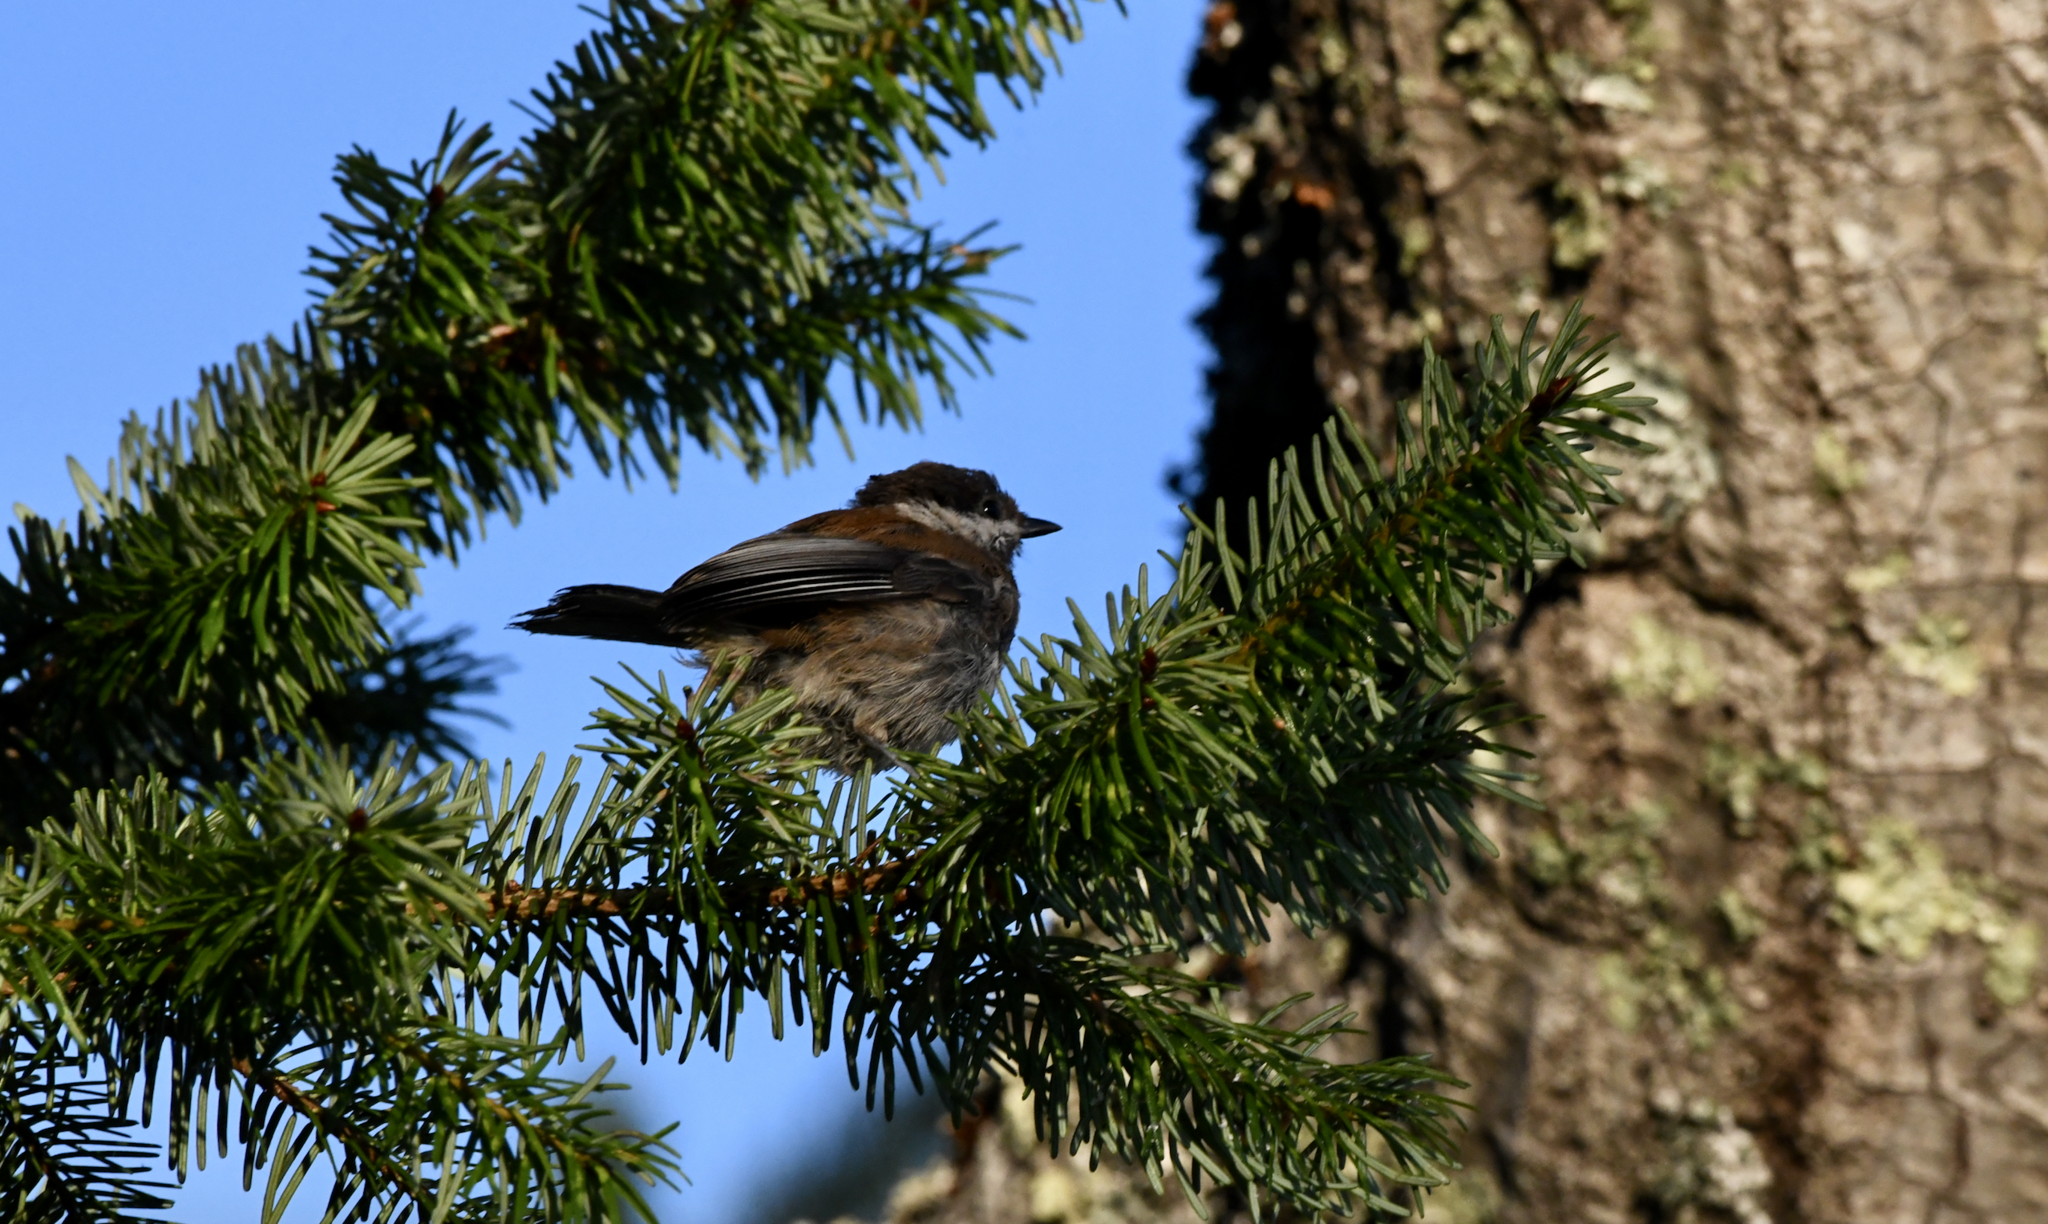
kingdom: Animalia
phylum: Chordata
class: Aves
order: Passeriformes
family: Paridae
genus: Poecile
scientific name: Poecile rufescens
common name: Chestnut-backed chickadee
